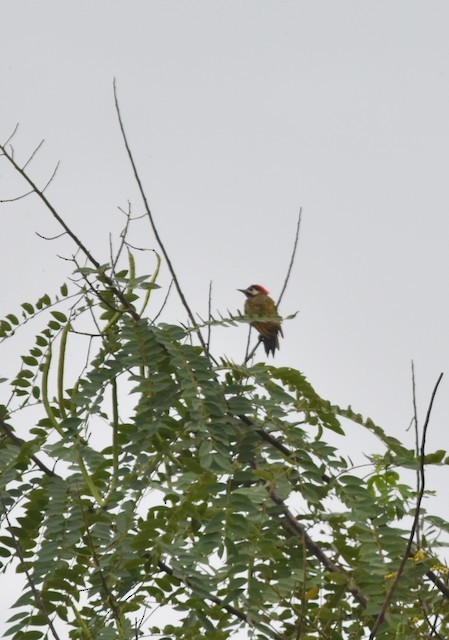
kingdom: Animalia
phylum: Chordata
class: Aves
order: Piciformes
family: Picidae
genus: Colaptes
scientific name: Colaptes punctigula
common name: Spot-breasted woodpecker
